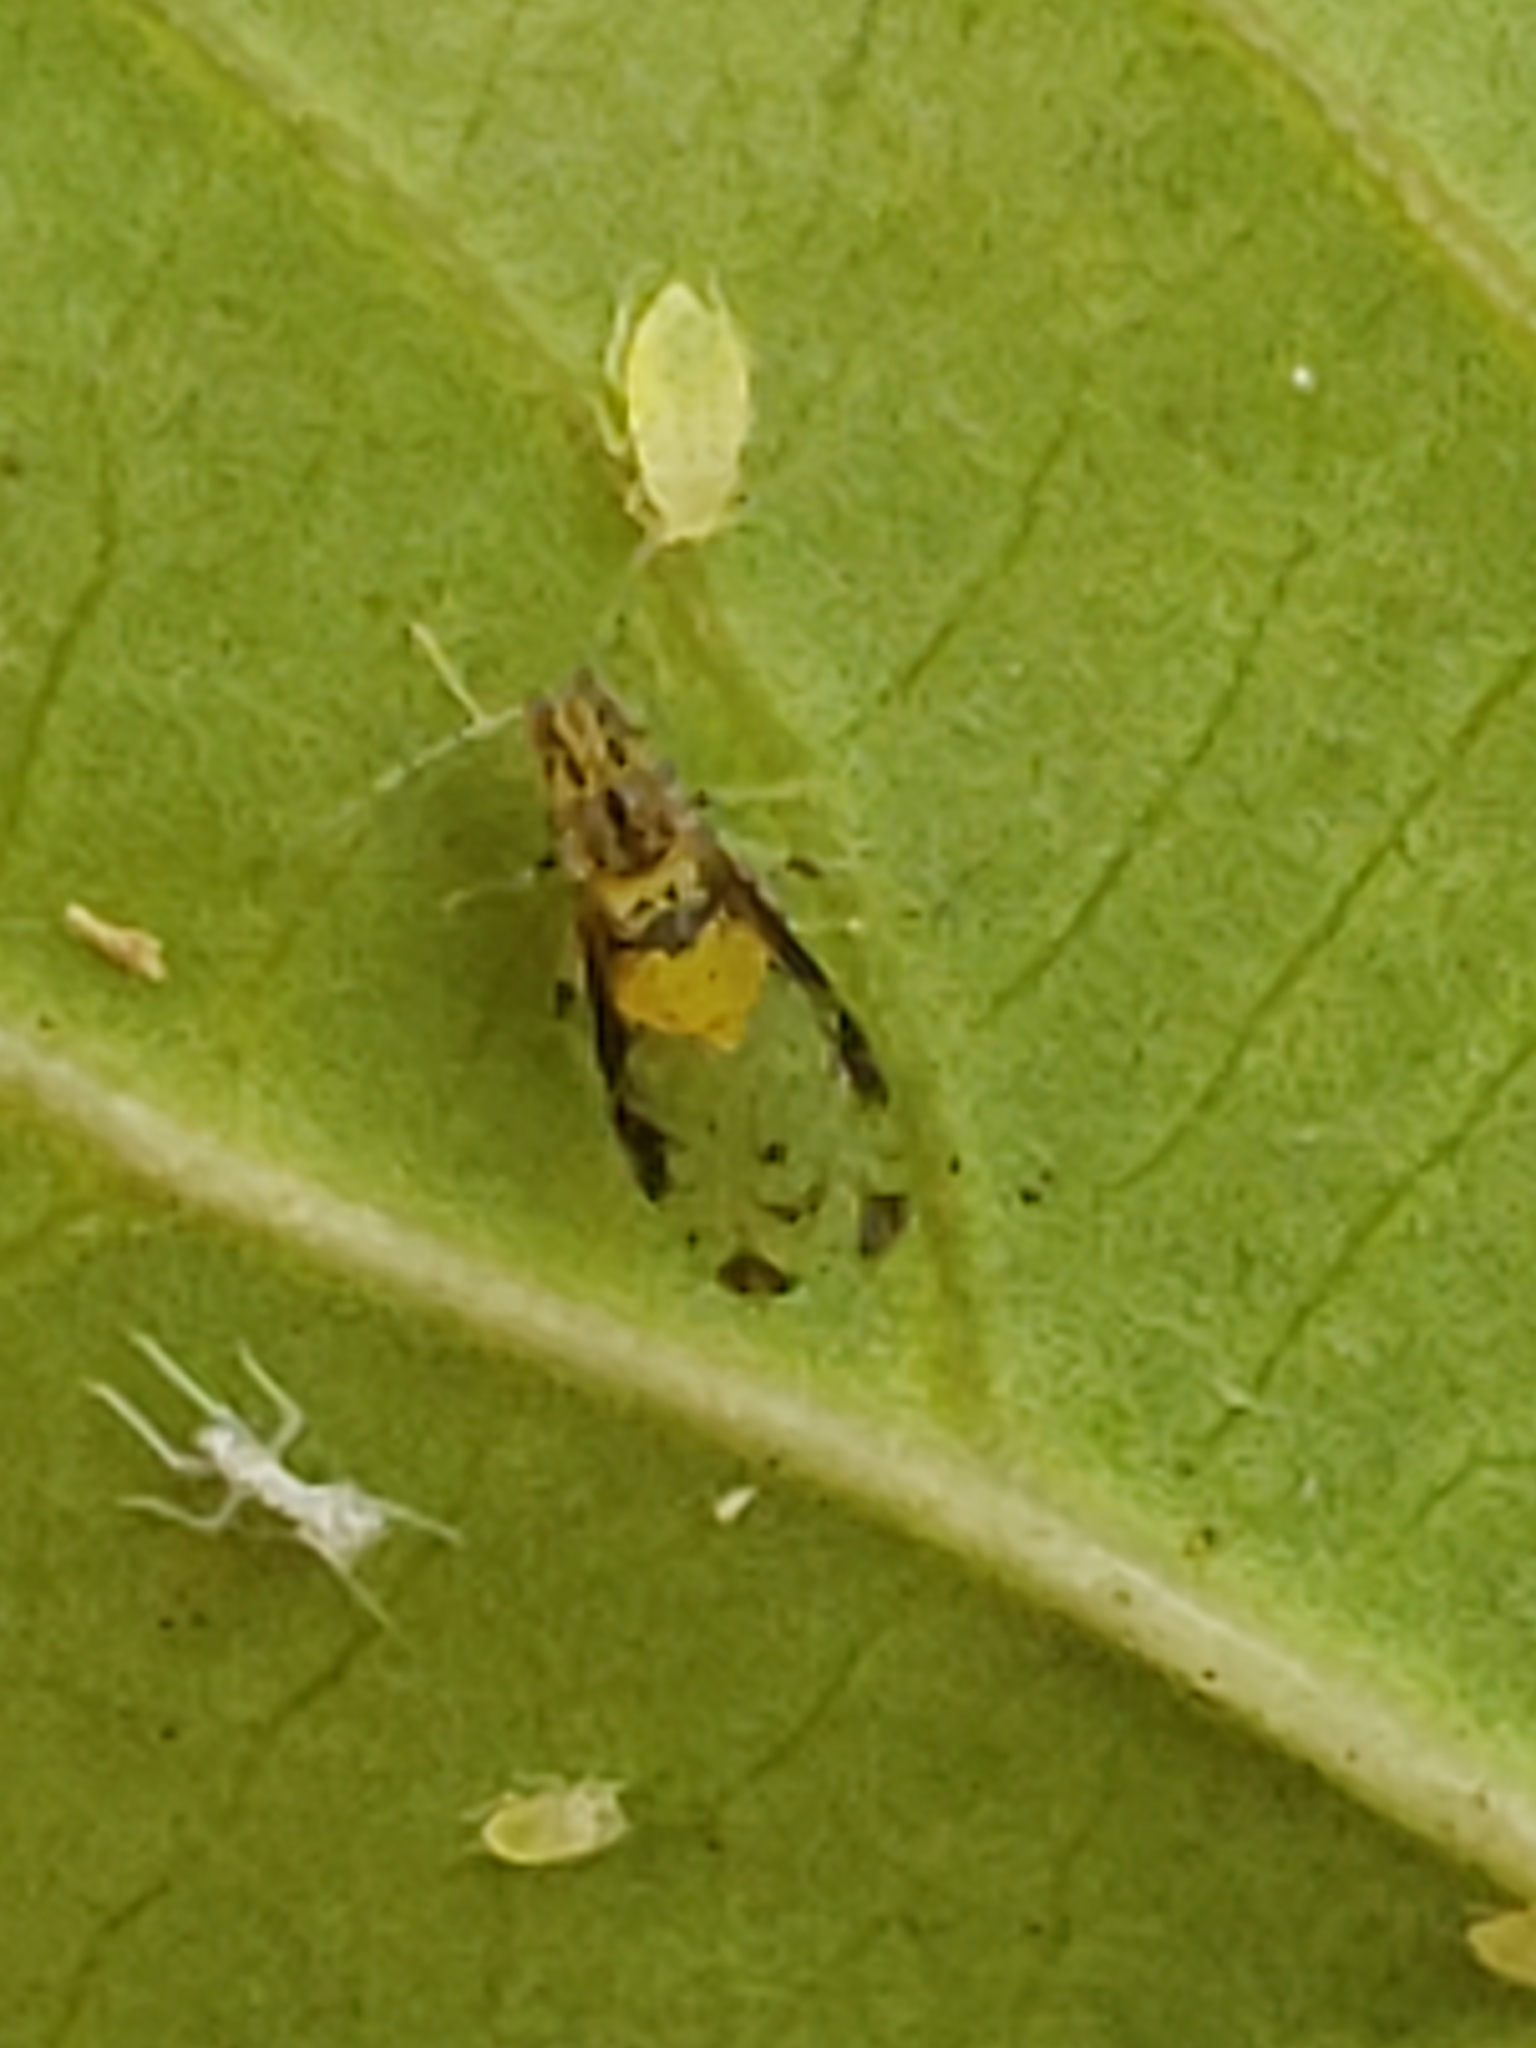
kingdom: Animalia
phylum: Arthropoda
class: Insecta
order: Hemiptera
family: Aphididae
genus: Sarucallis
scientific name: Sarucallis kahawaluokalani
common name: Crapemyrtle aphid
